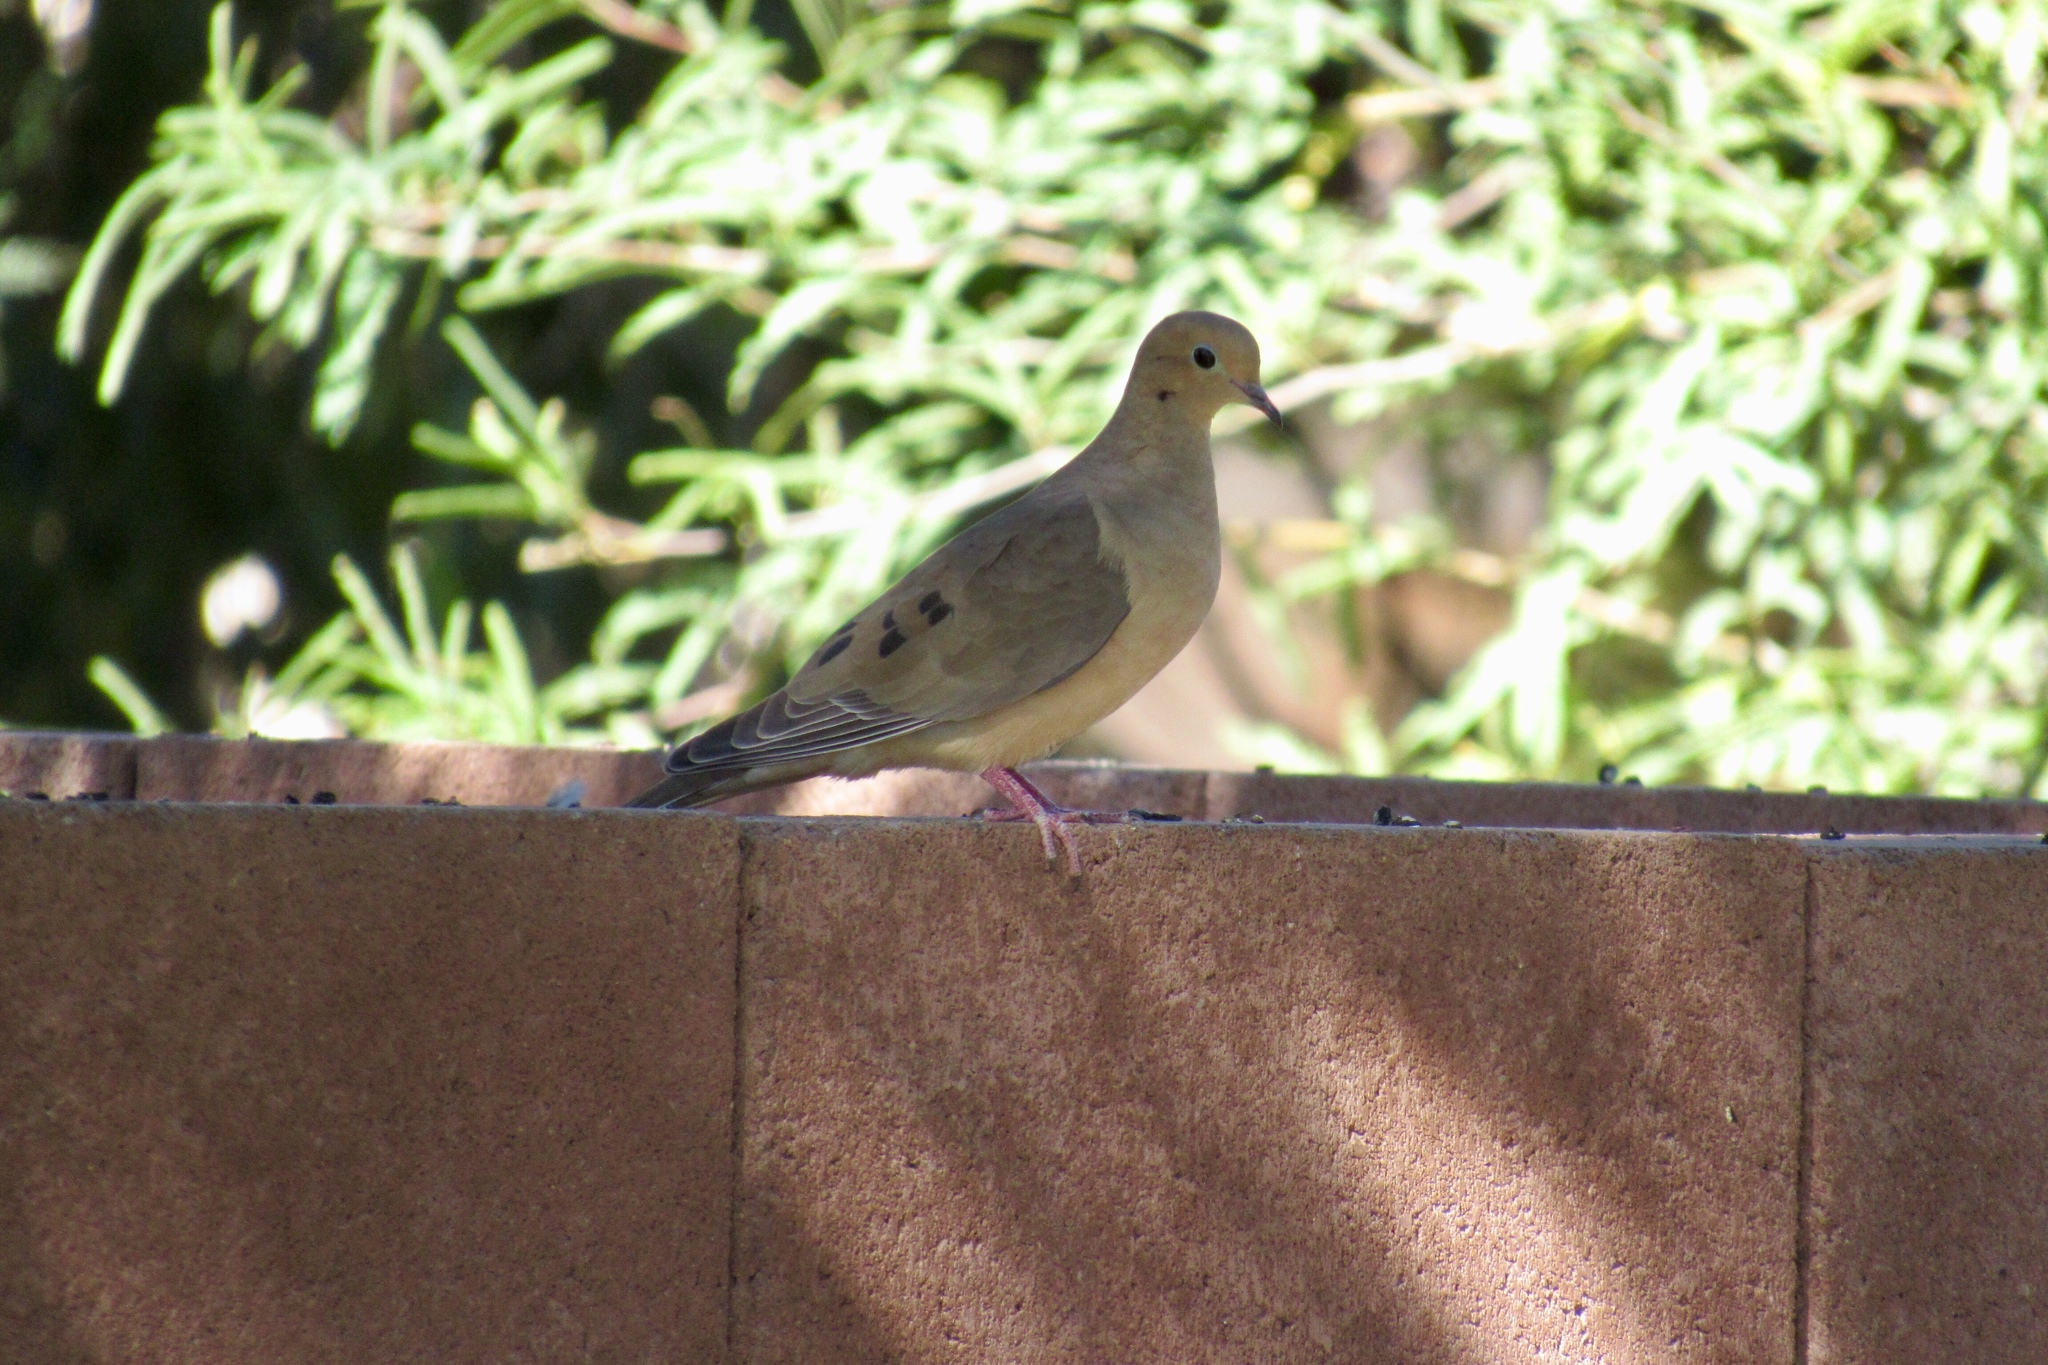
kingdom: Animalia
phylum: Chordata
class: Aves
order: Columbiformes
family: Columbidae
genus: Zenaida
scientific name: Zenaida macroura
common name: Mourning dove
